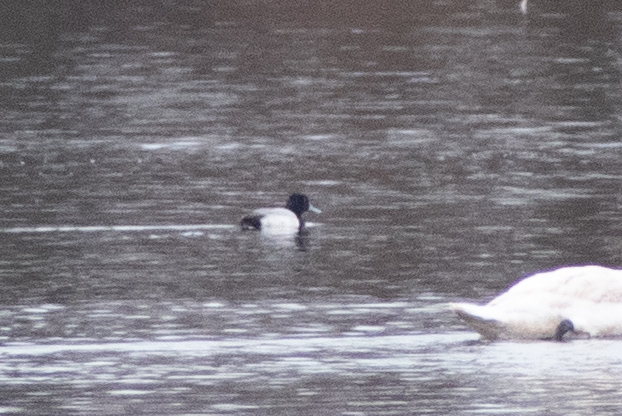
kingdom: Animalia
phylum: Chordata
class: Aves
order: Anseriformes
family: Anatidae
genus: Aythya
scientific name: Aythya affinis
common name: Lesser scaup
